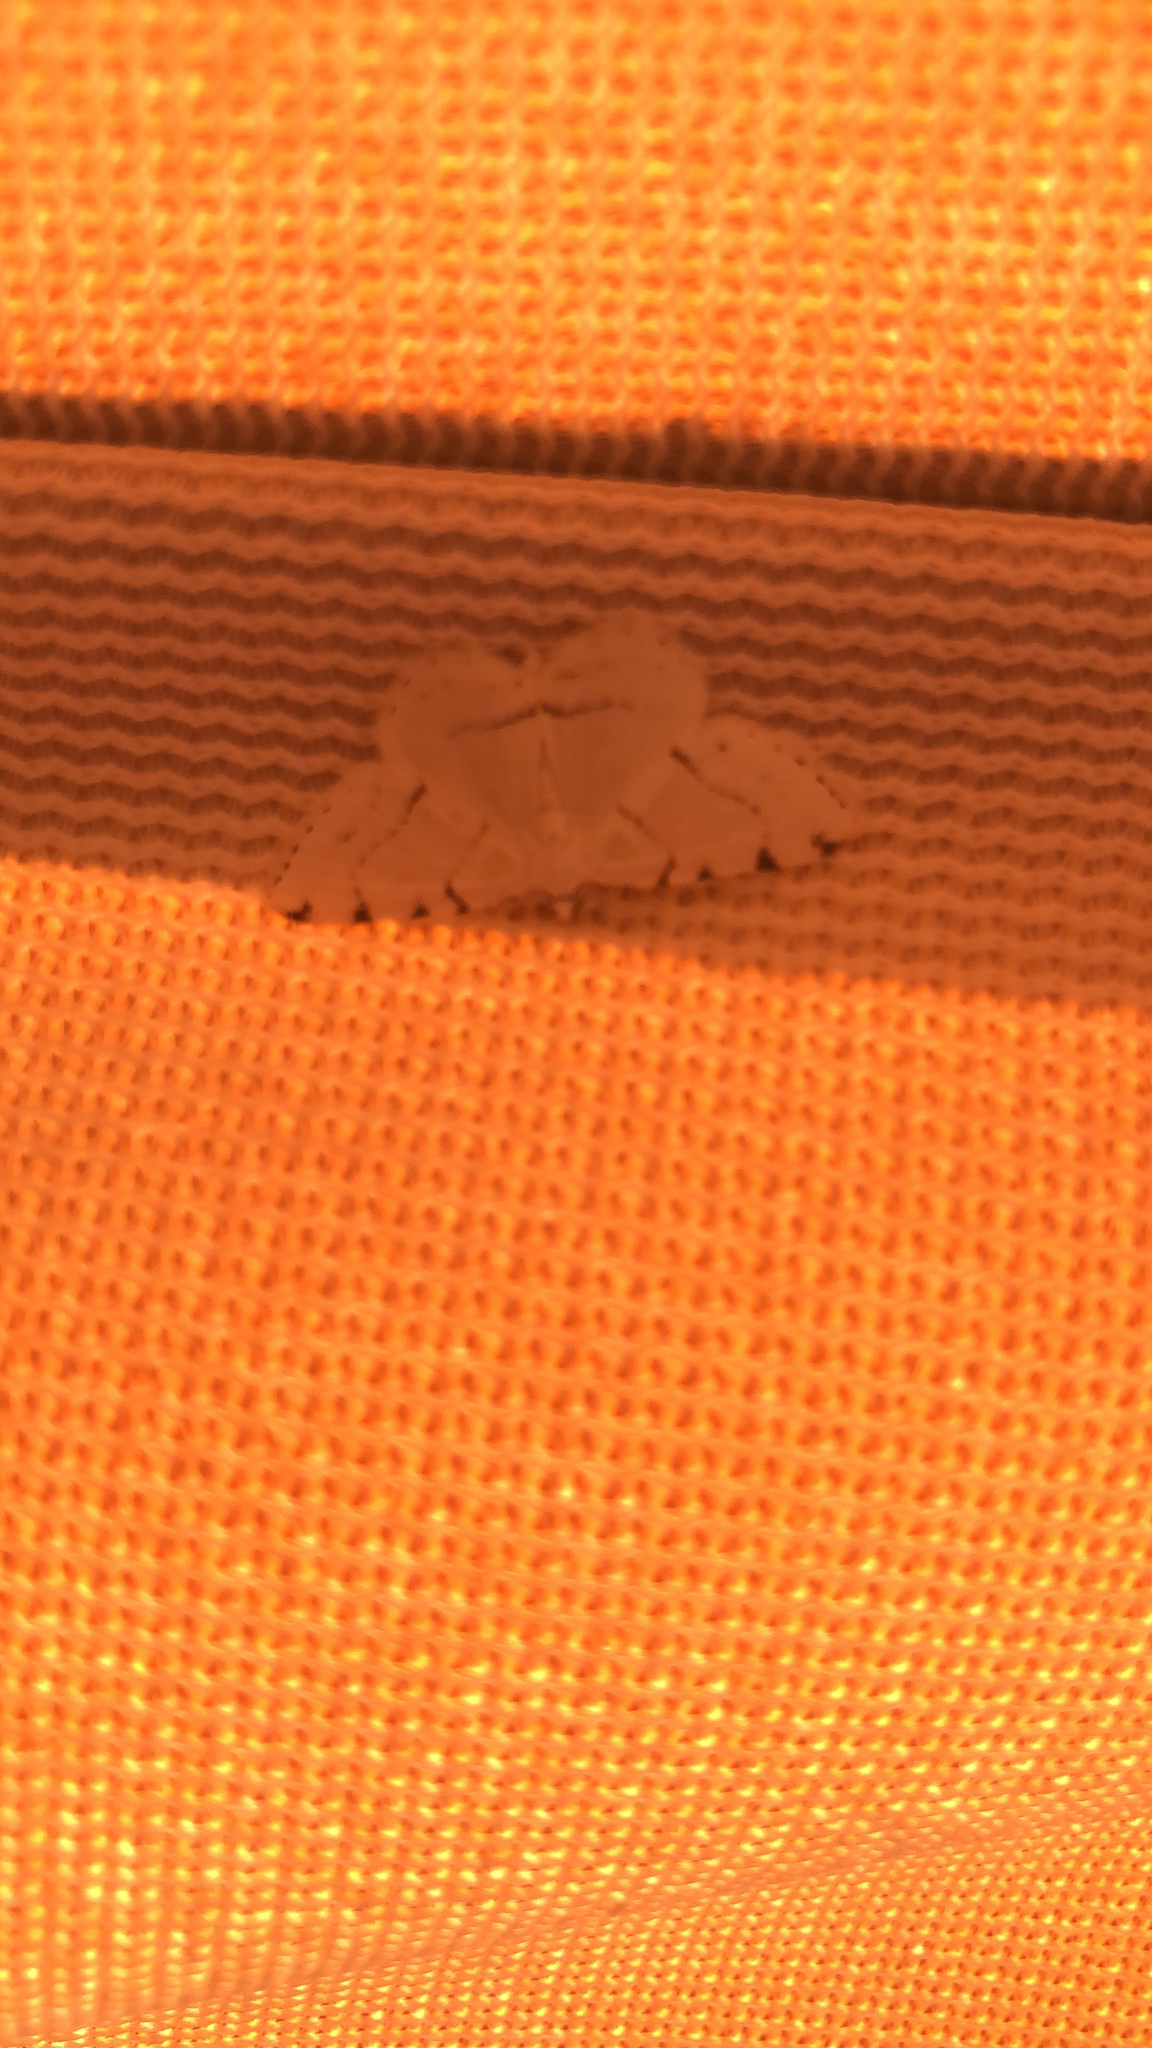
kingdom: Animalia
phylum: Arthropoda
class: Insecta
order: Lepidoptera
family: Geometridae
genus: Macaria
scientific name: Macaria pustularia
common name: Lesser maple spanworm moth
